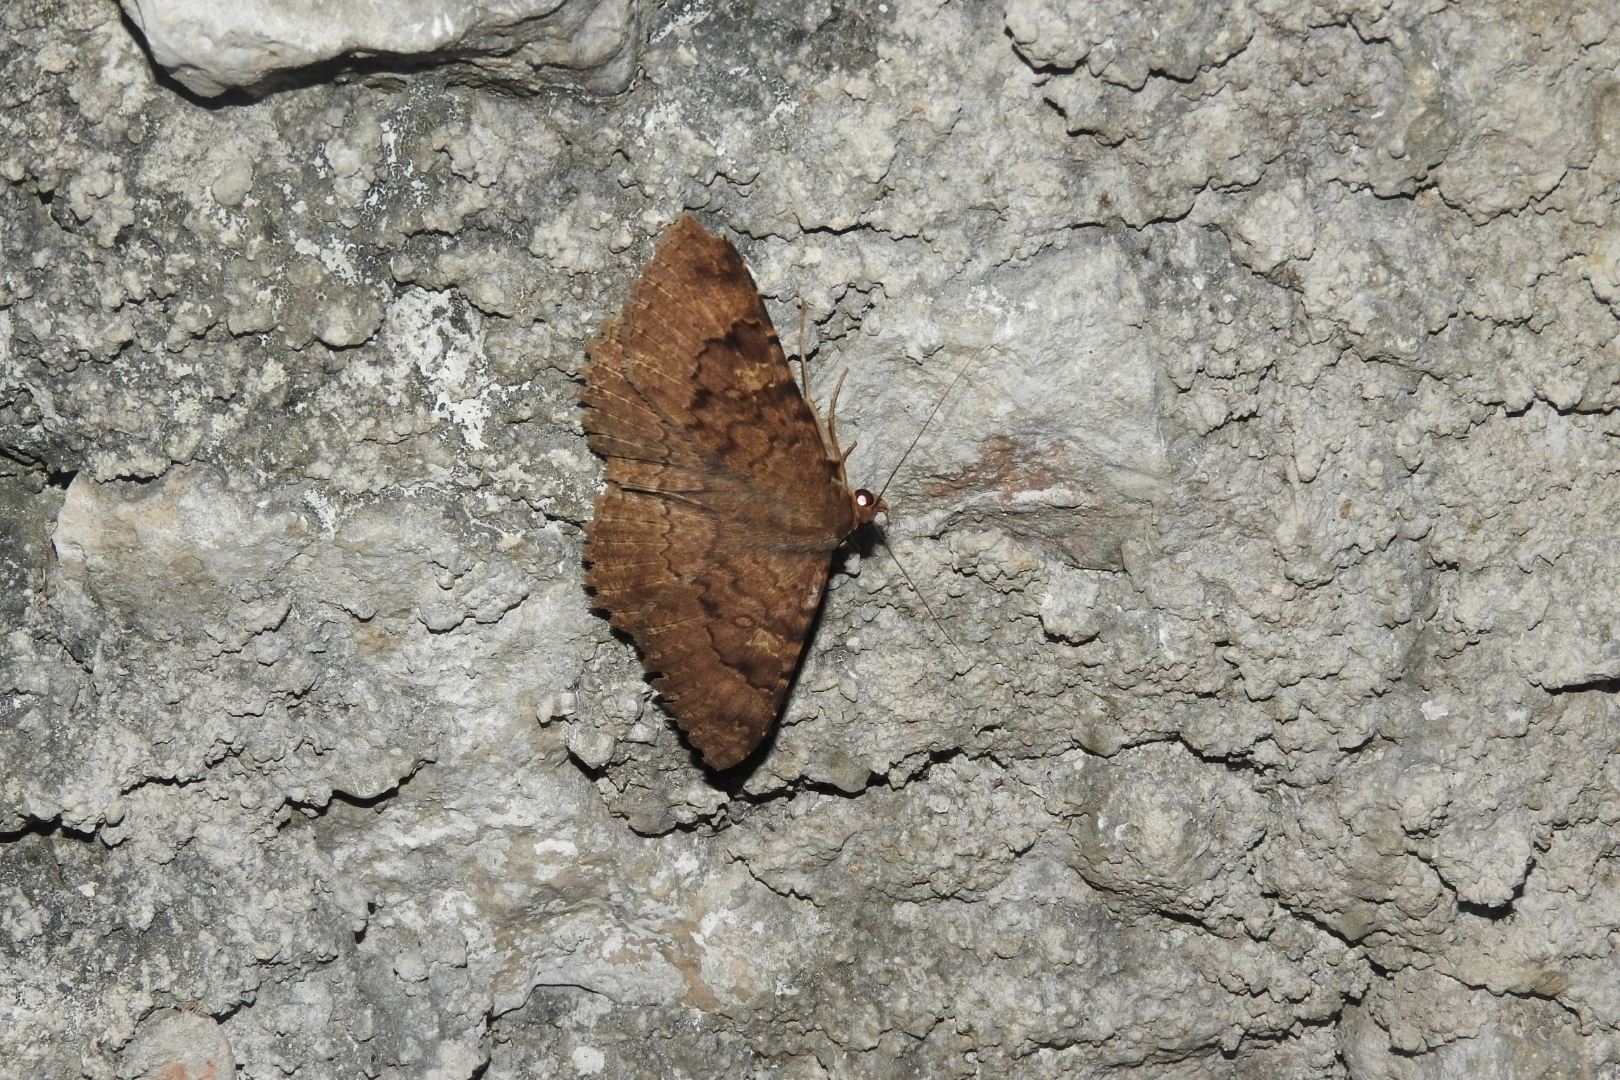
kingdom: Animalia
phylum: Arthropoda
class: Insecta
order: Lepidoptera
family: Erebidae
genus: Latebraria
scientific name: Latebraria amphipyroides
